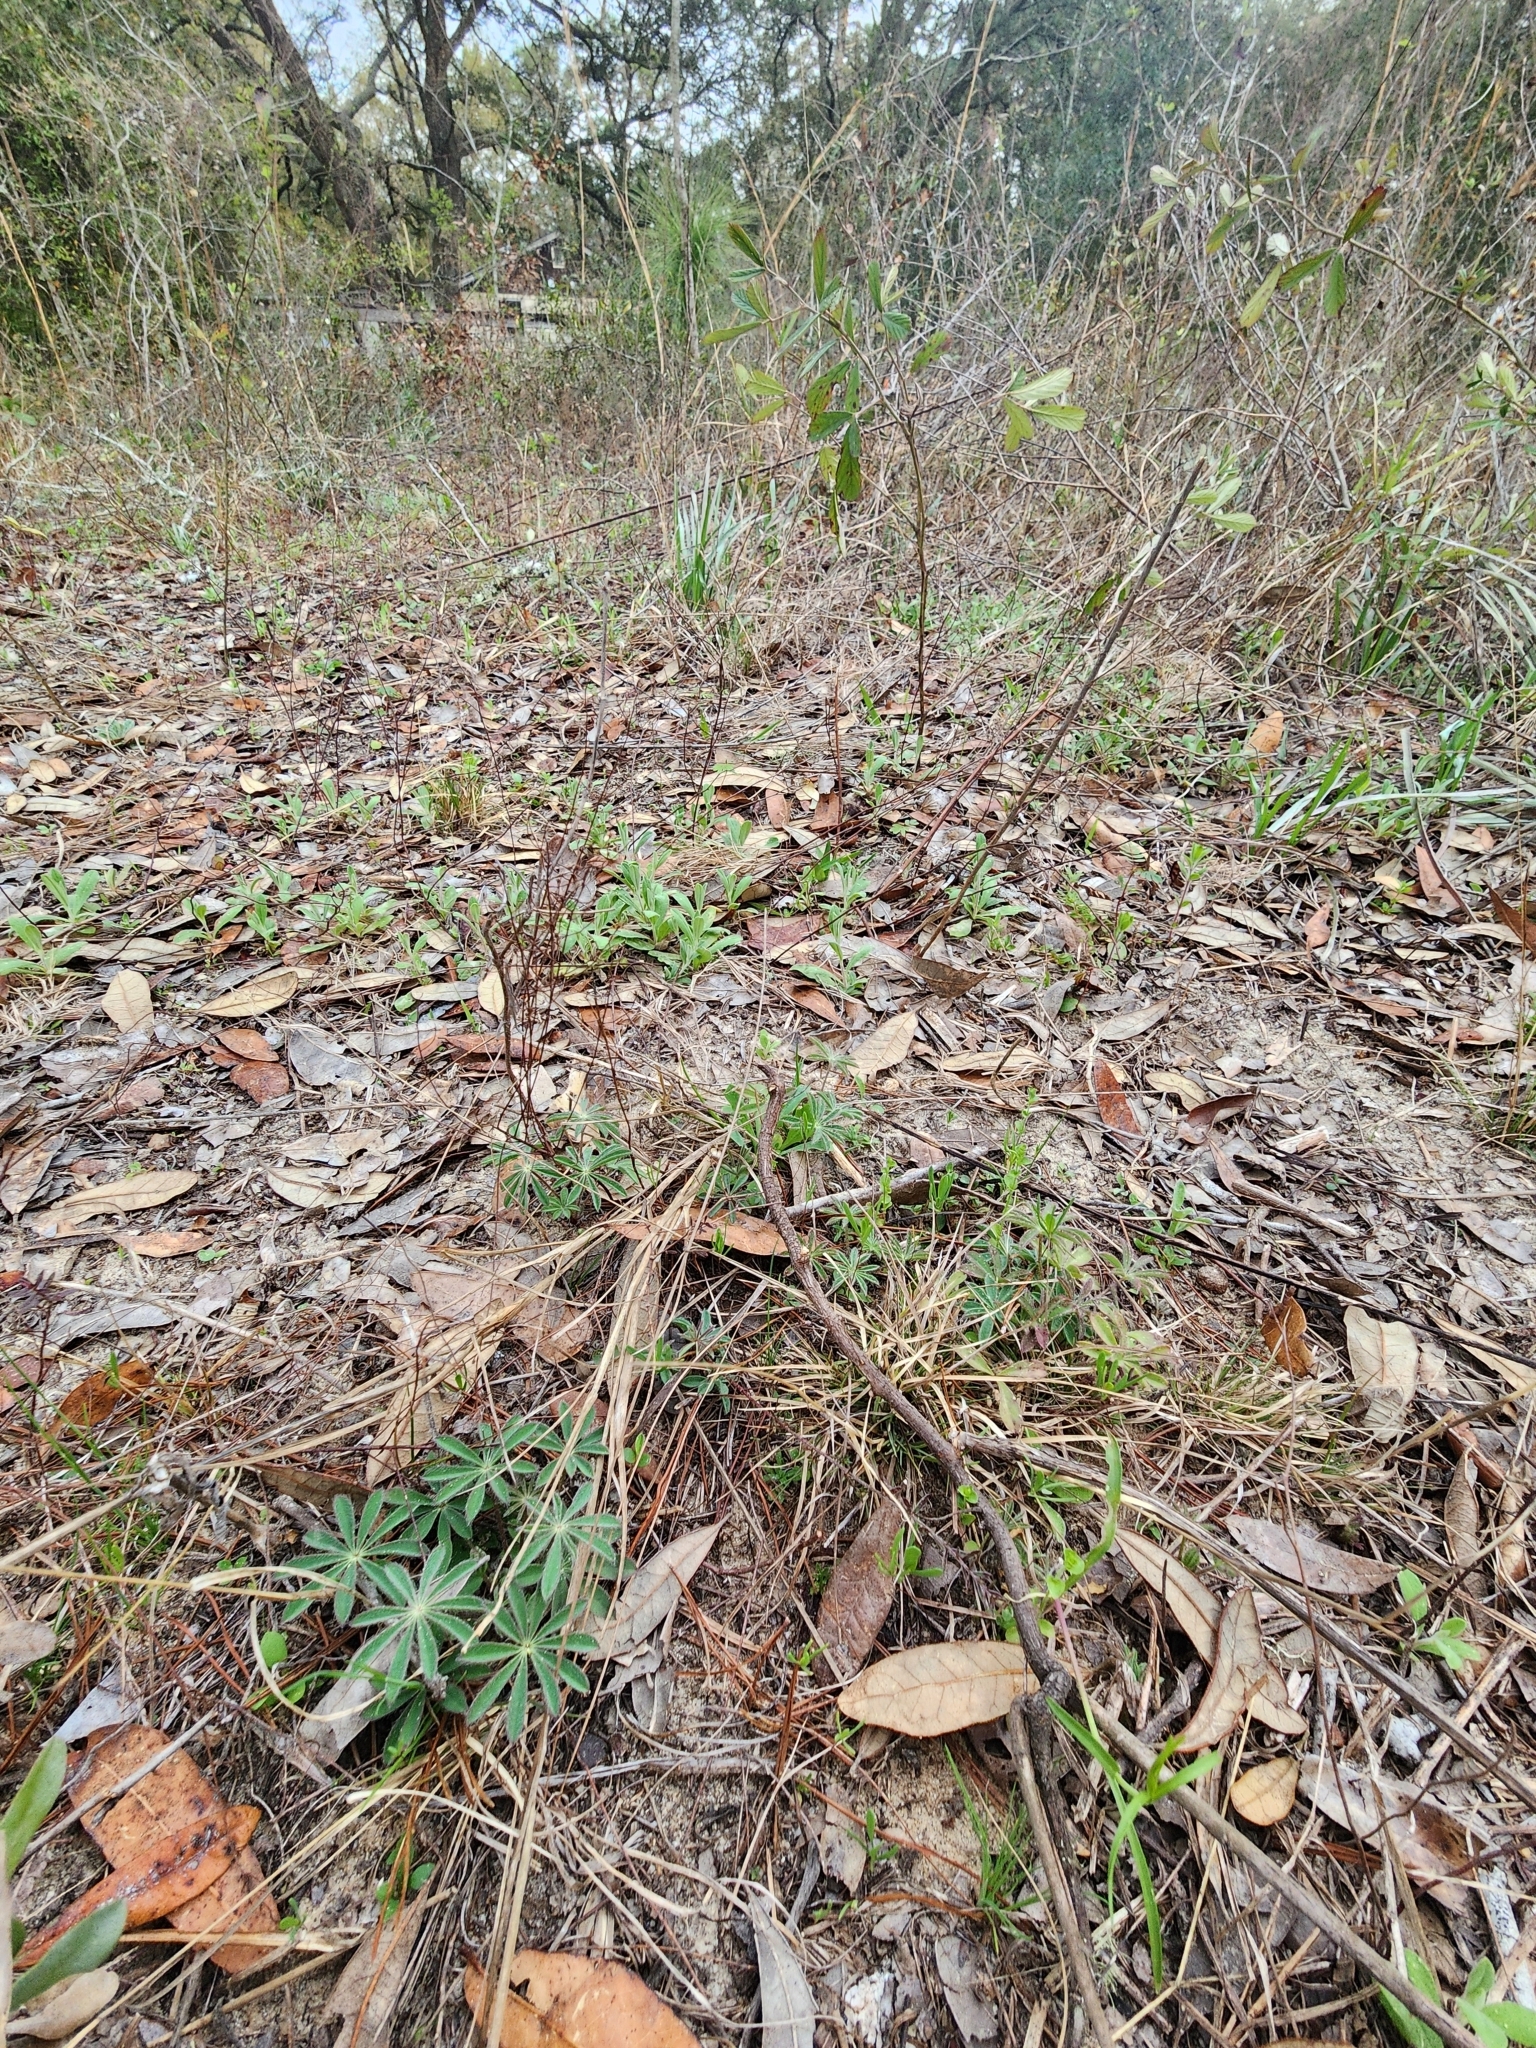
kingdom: Plantae
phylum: Tracheophyta
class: Magnoliopsida
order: Fabales
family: Fabaceae
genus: Lupinus
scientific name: Lupinus perennis
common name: Sundial lupine
